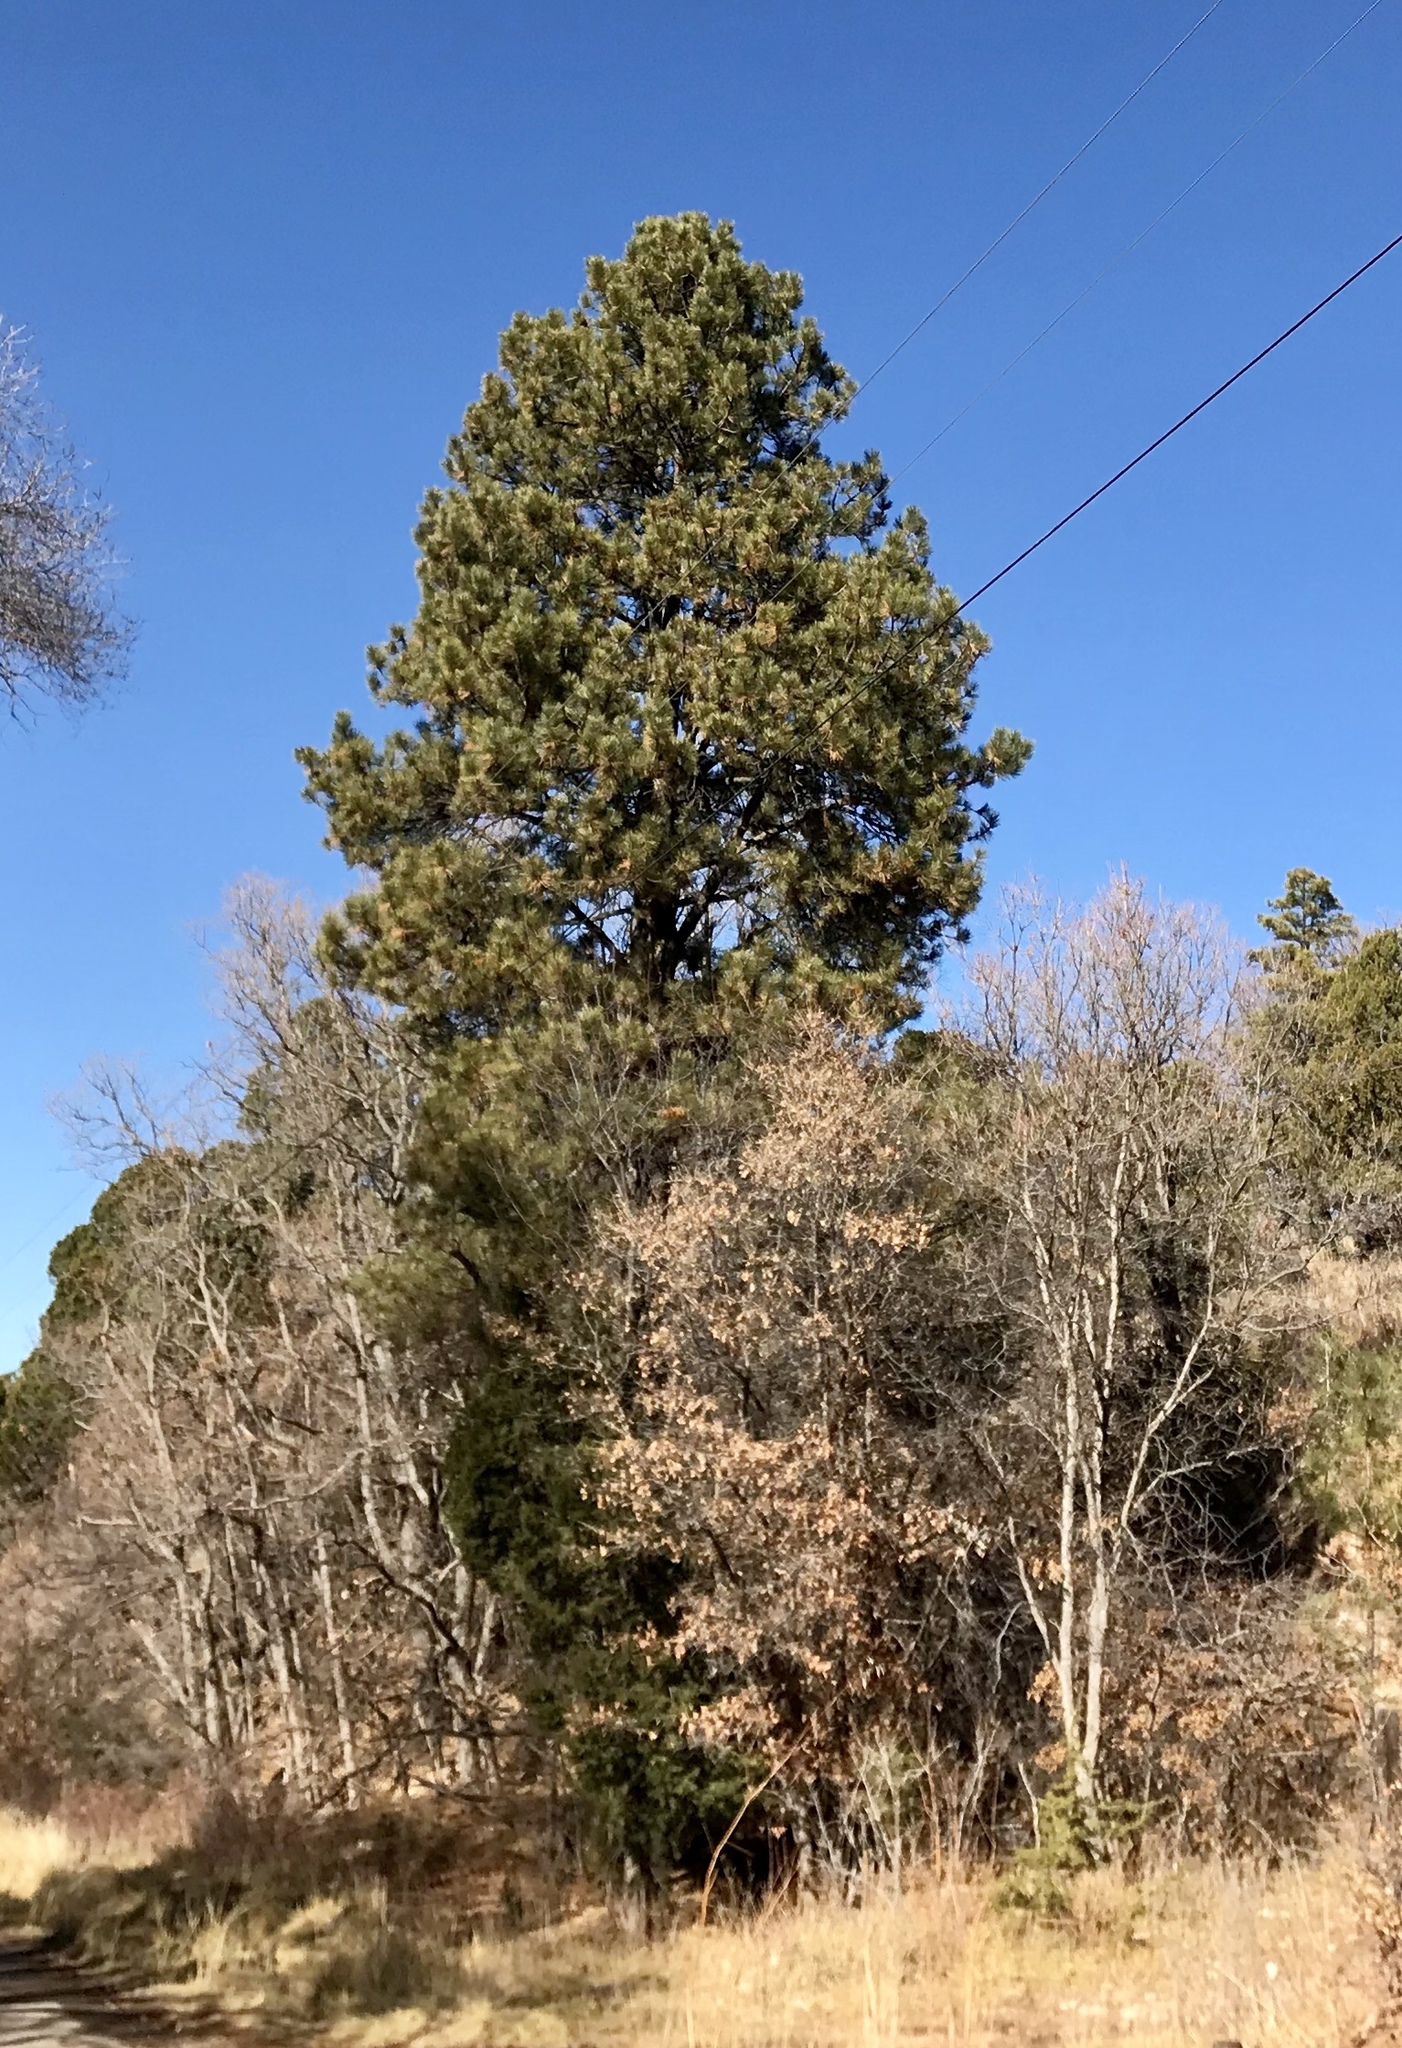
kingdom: Plantae
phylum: Tracheophyta
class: Pinopsida
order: Pinales
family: Pinaceae
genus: Pinus
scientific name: Pinus ponderosa
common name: Western yellow-pine
